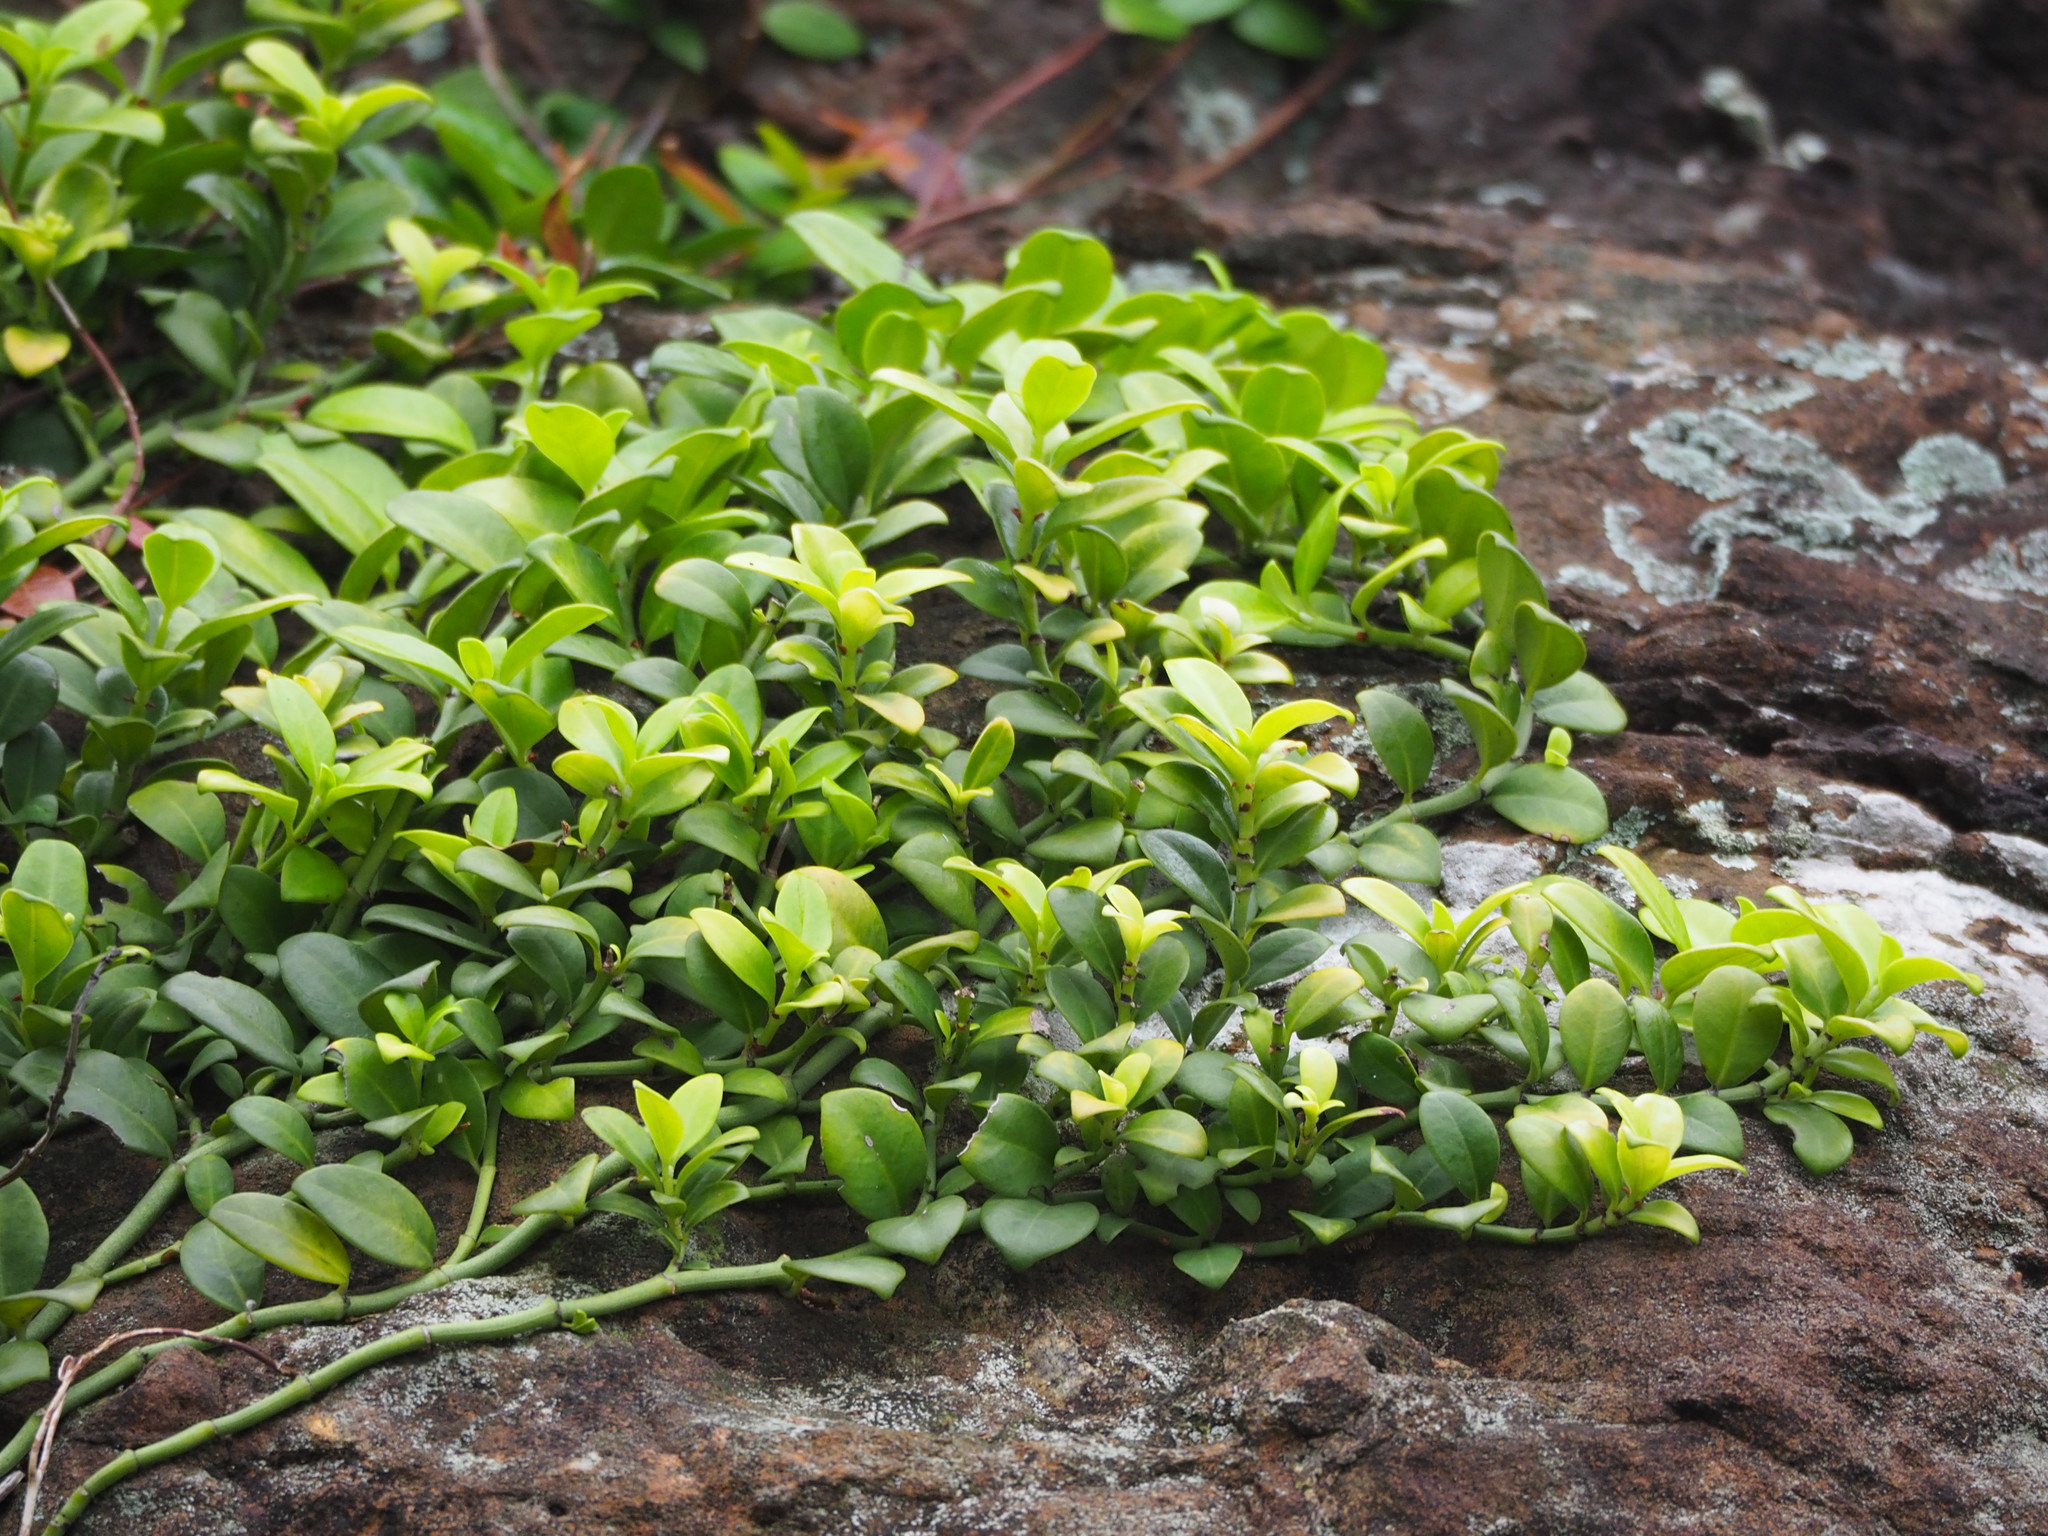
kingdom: Plantae
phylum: Tracheophyta
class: Magnoliopsida
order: Gentianales
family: Rubiaceae
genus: Psychotria
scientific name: Psychotria serpens
